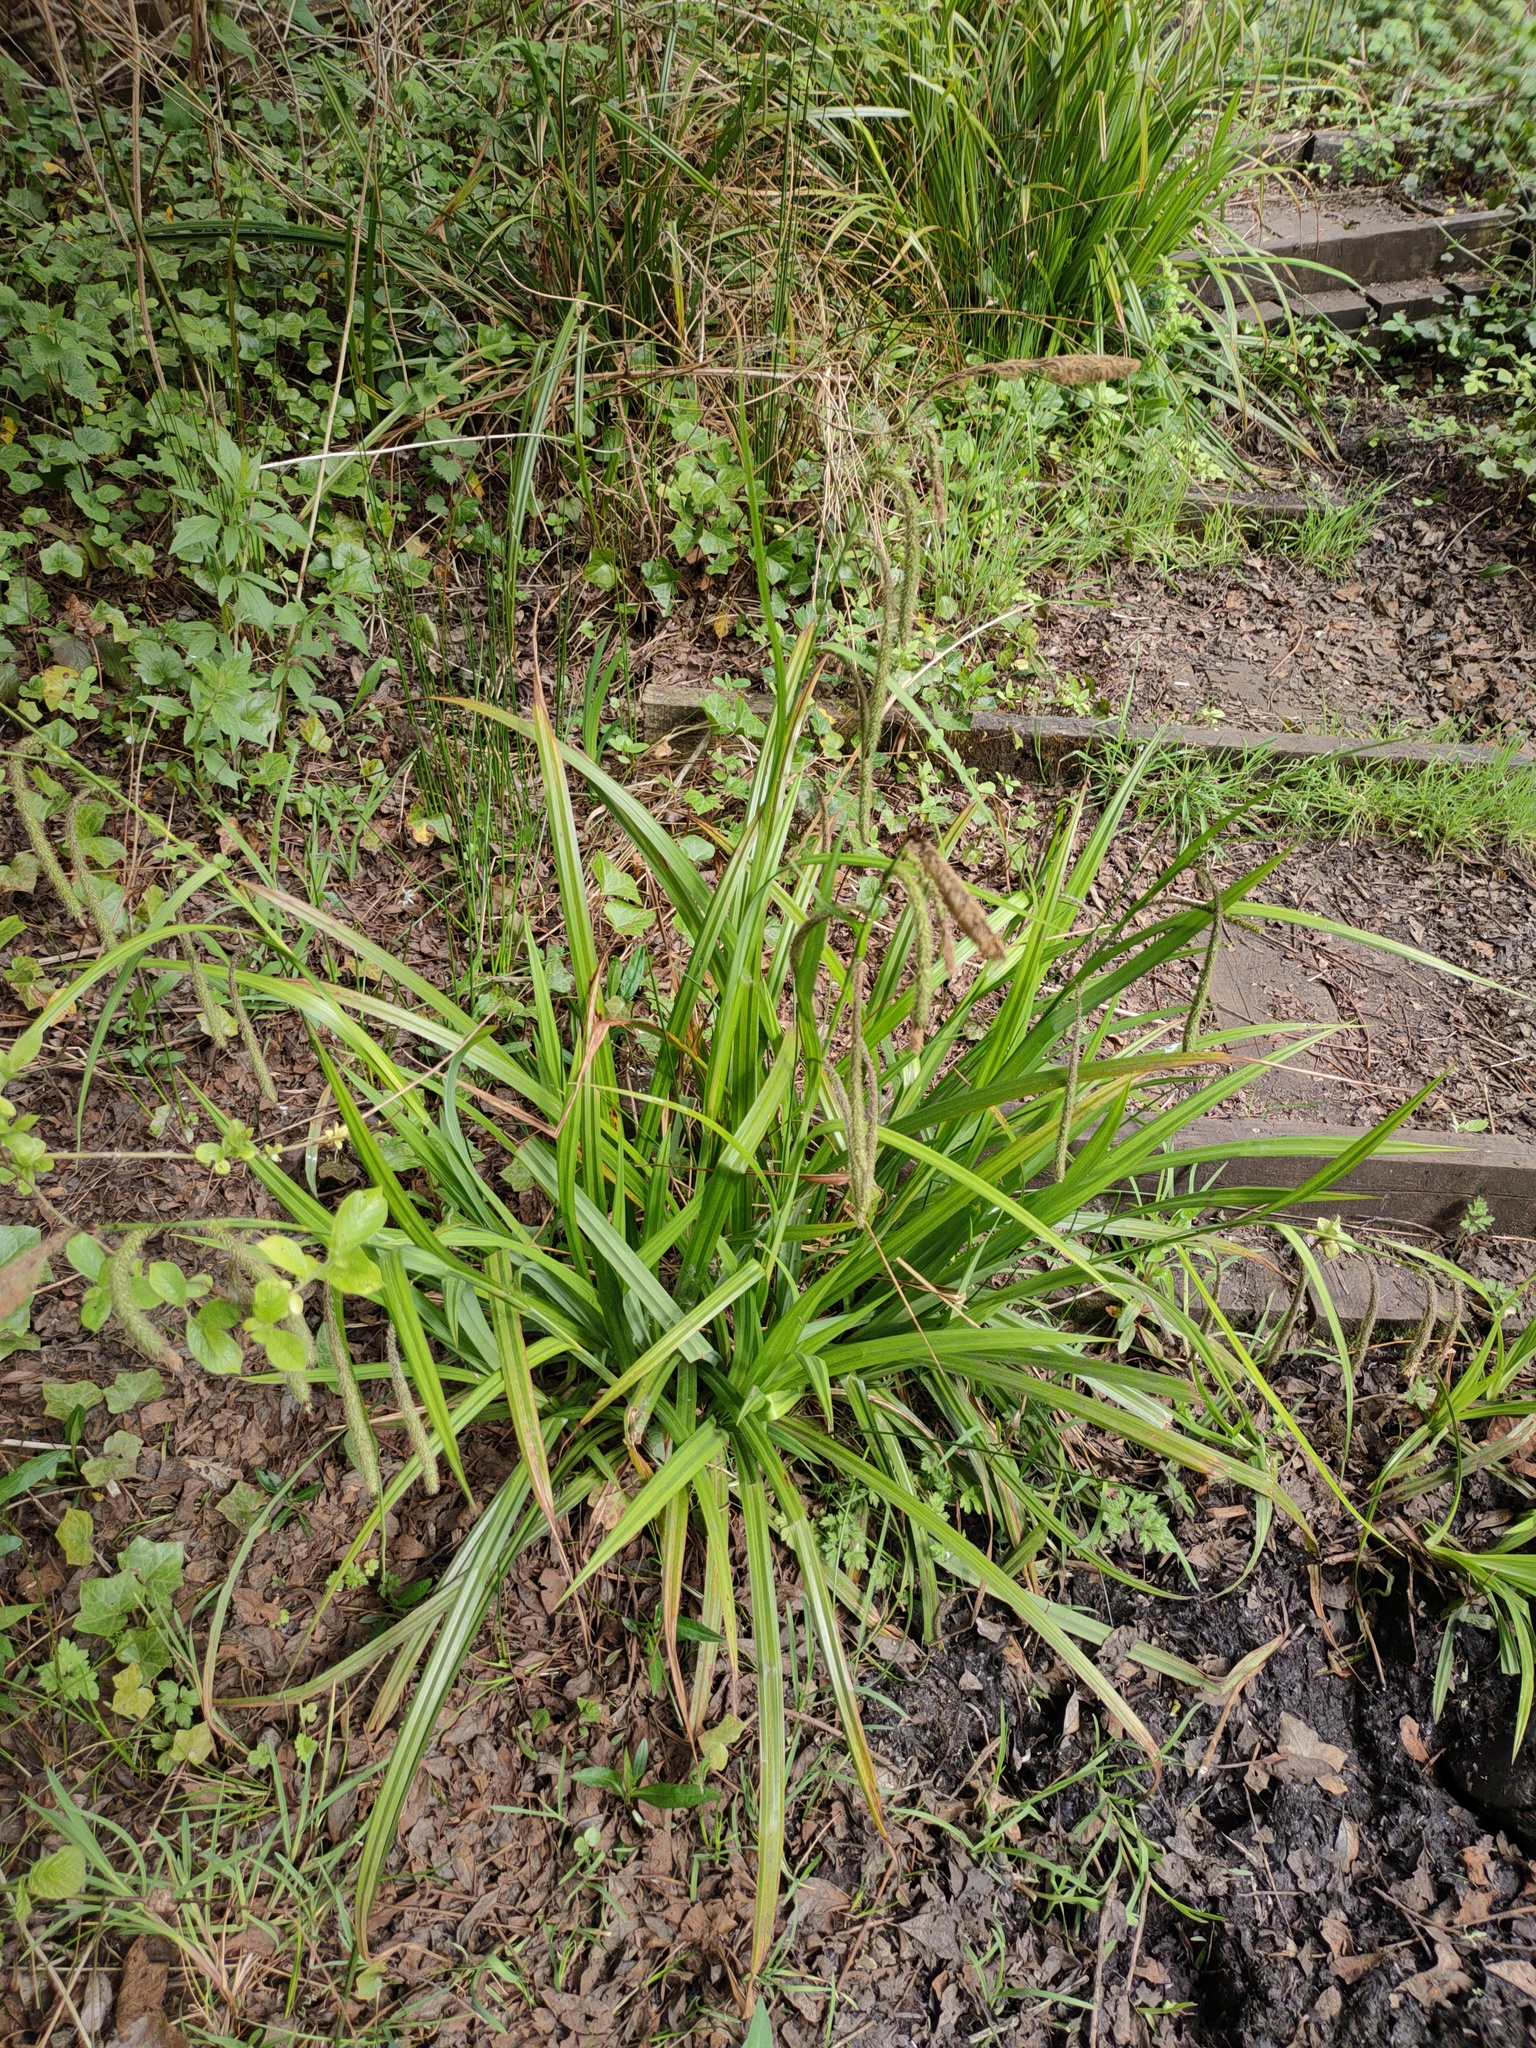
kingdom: Plantae
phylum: Tracheophyta
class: Liliopsida
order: Poales
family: Cyperaceae
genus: Carex
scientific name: Carex pendula
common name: Pendulous sedge
